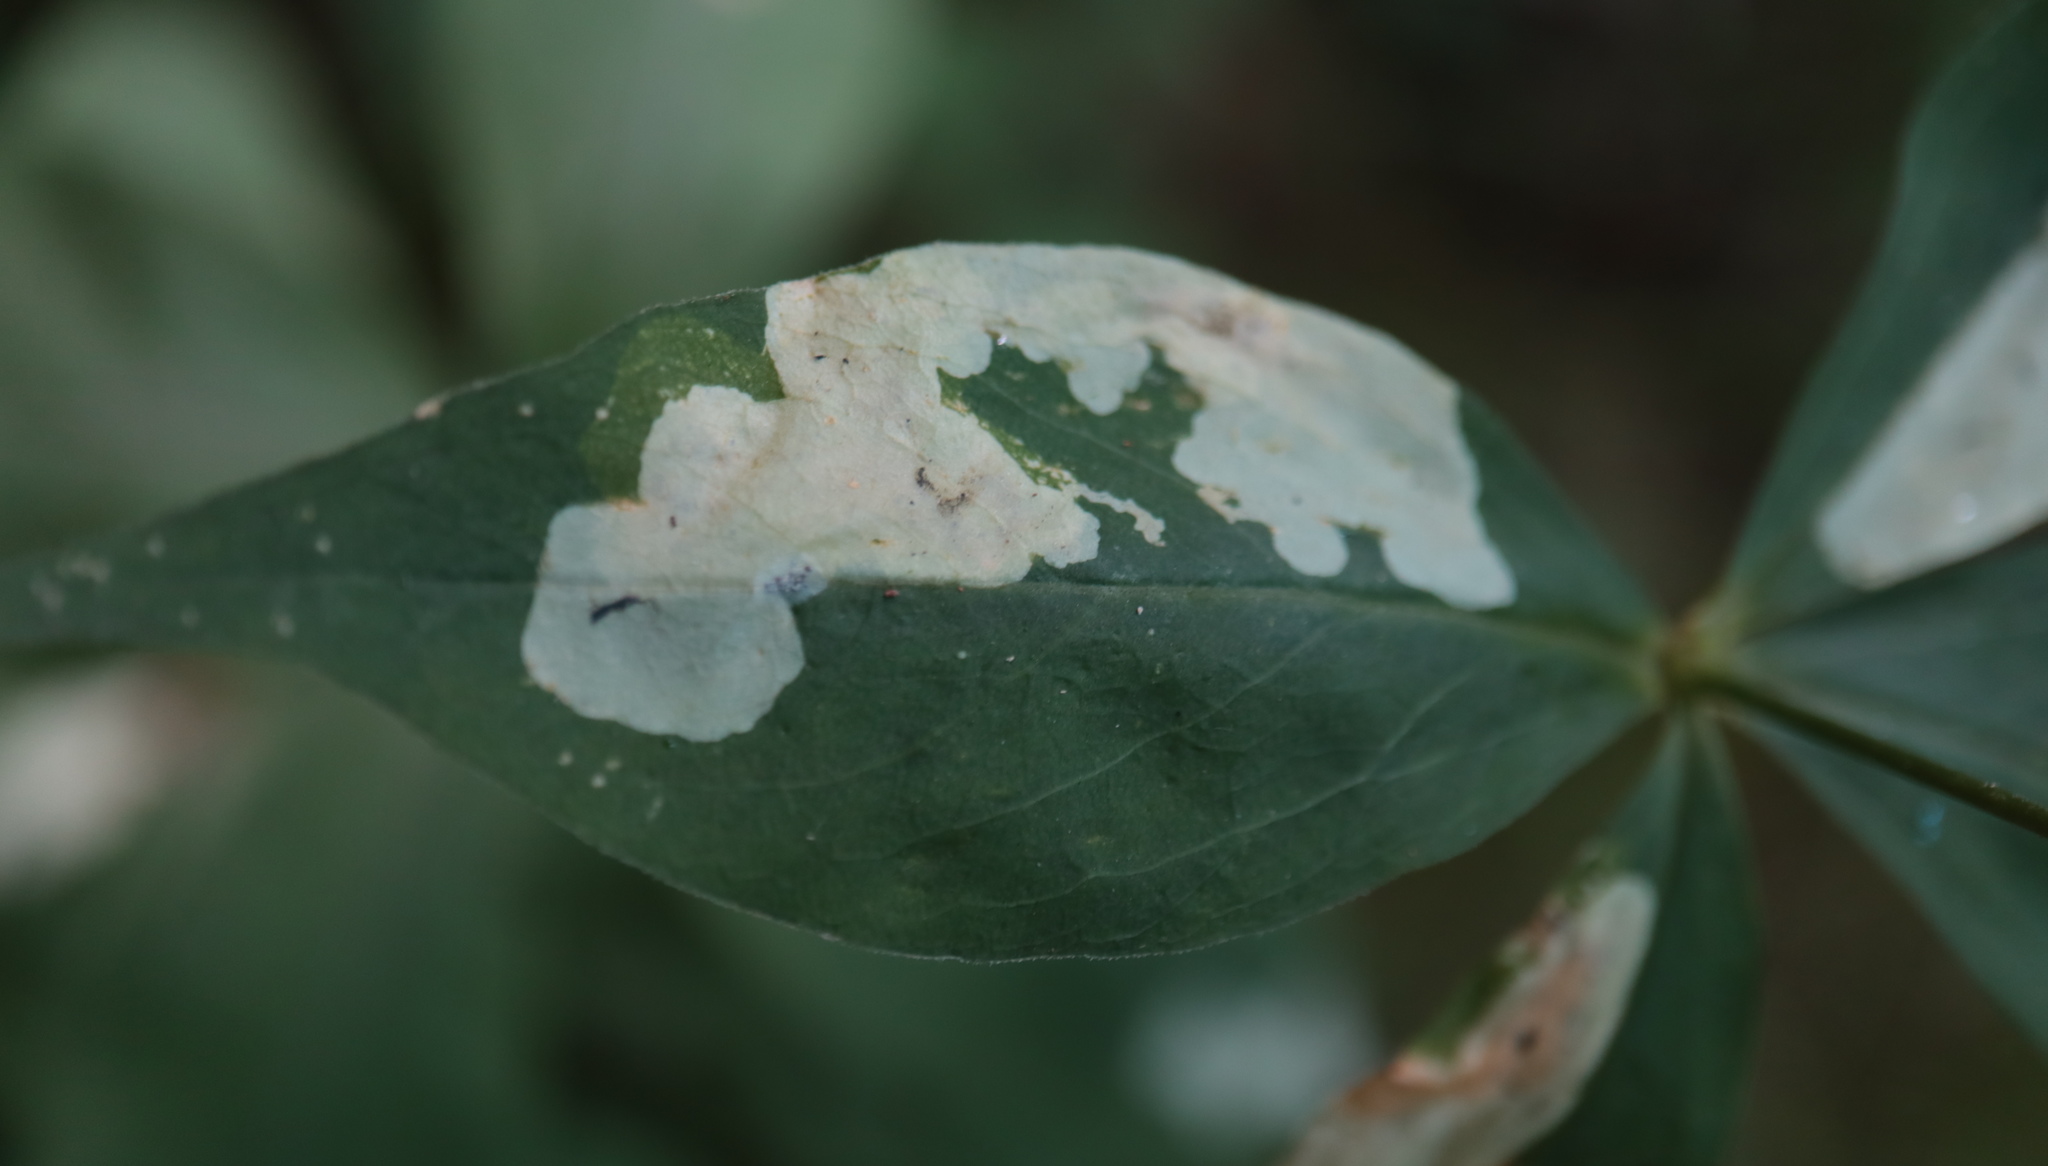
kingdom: Animalia
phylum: Arthropoda
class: Insecta
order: Diptera
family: Agromyzidae
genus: Amauromyza
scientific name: Amauromyza flavifrons
